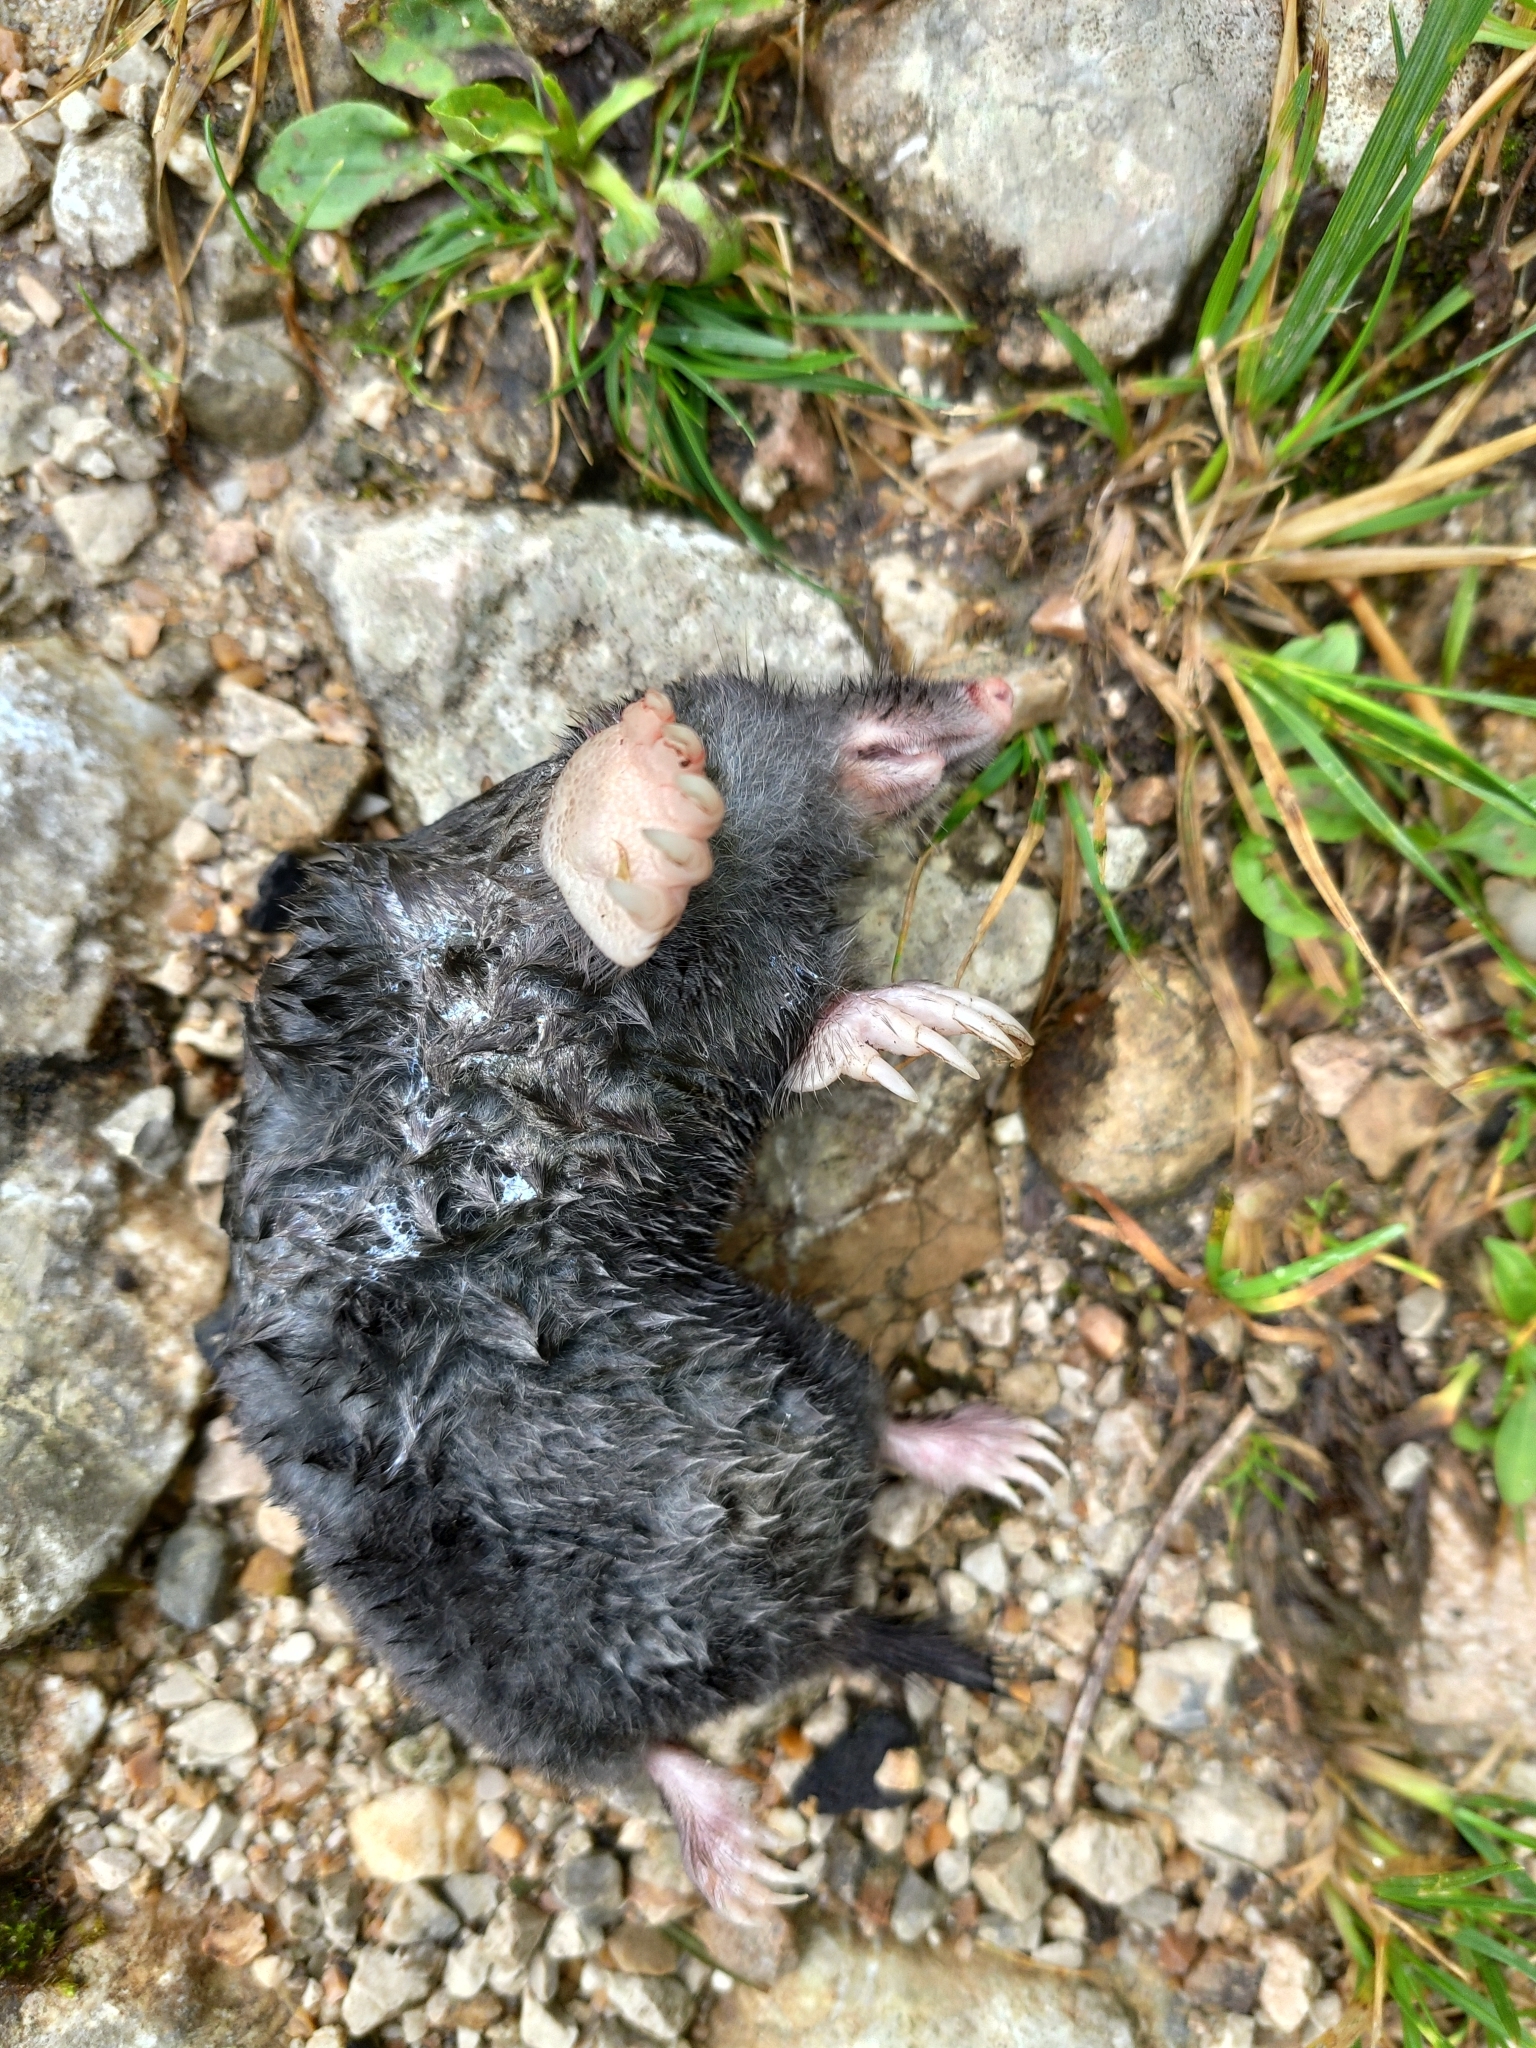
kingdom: Animalia
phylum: Chordata
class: Mammalia
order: Soricomorpha
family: Talpidae
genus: Talpa
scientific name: Talpa europaea
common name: European mole
